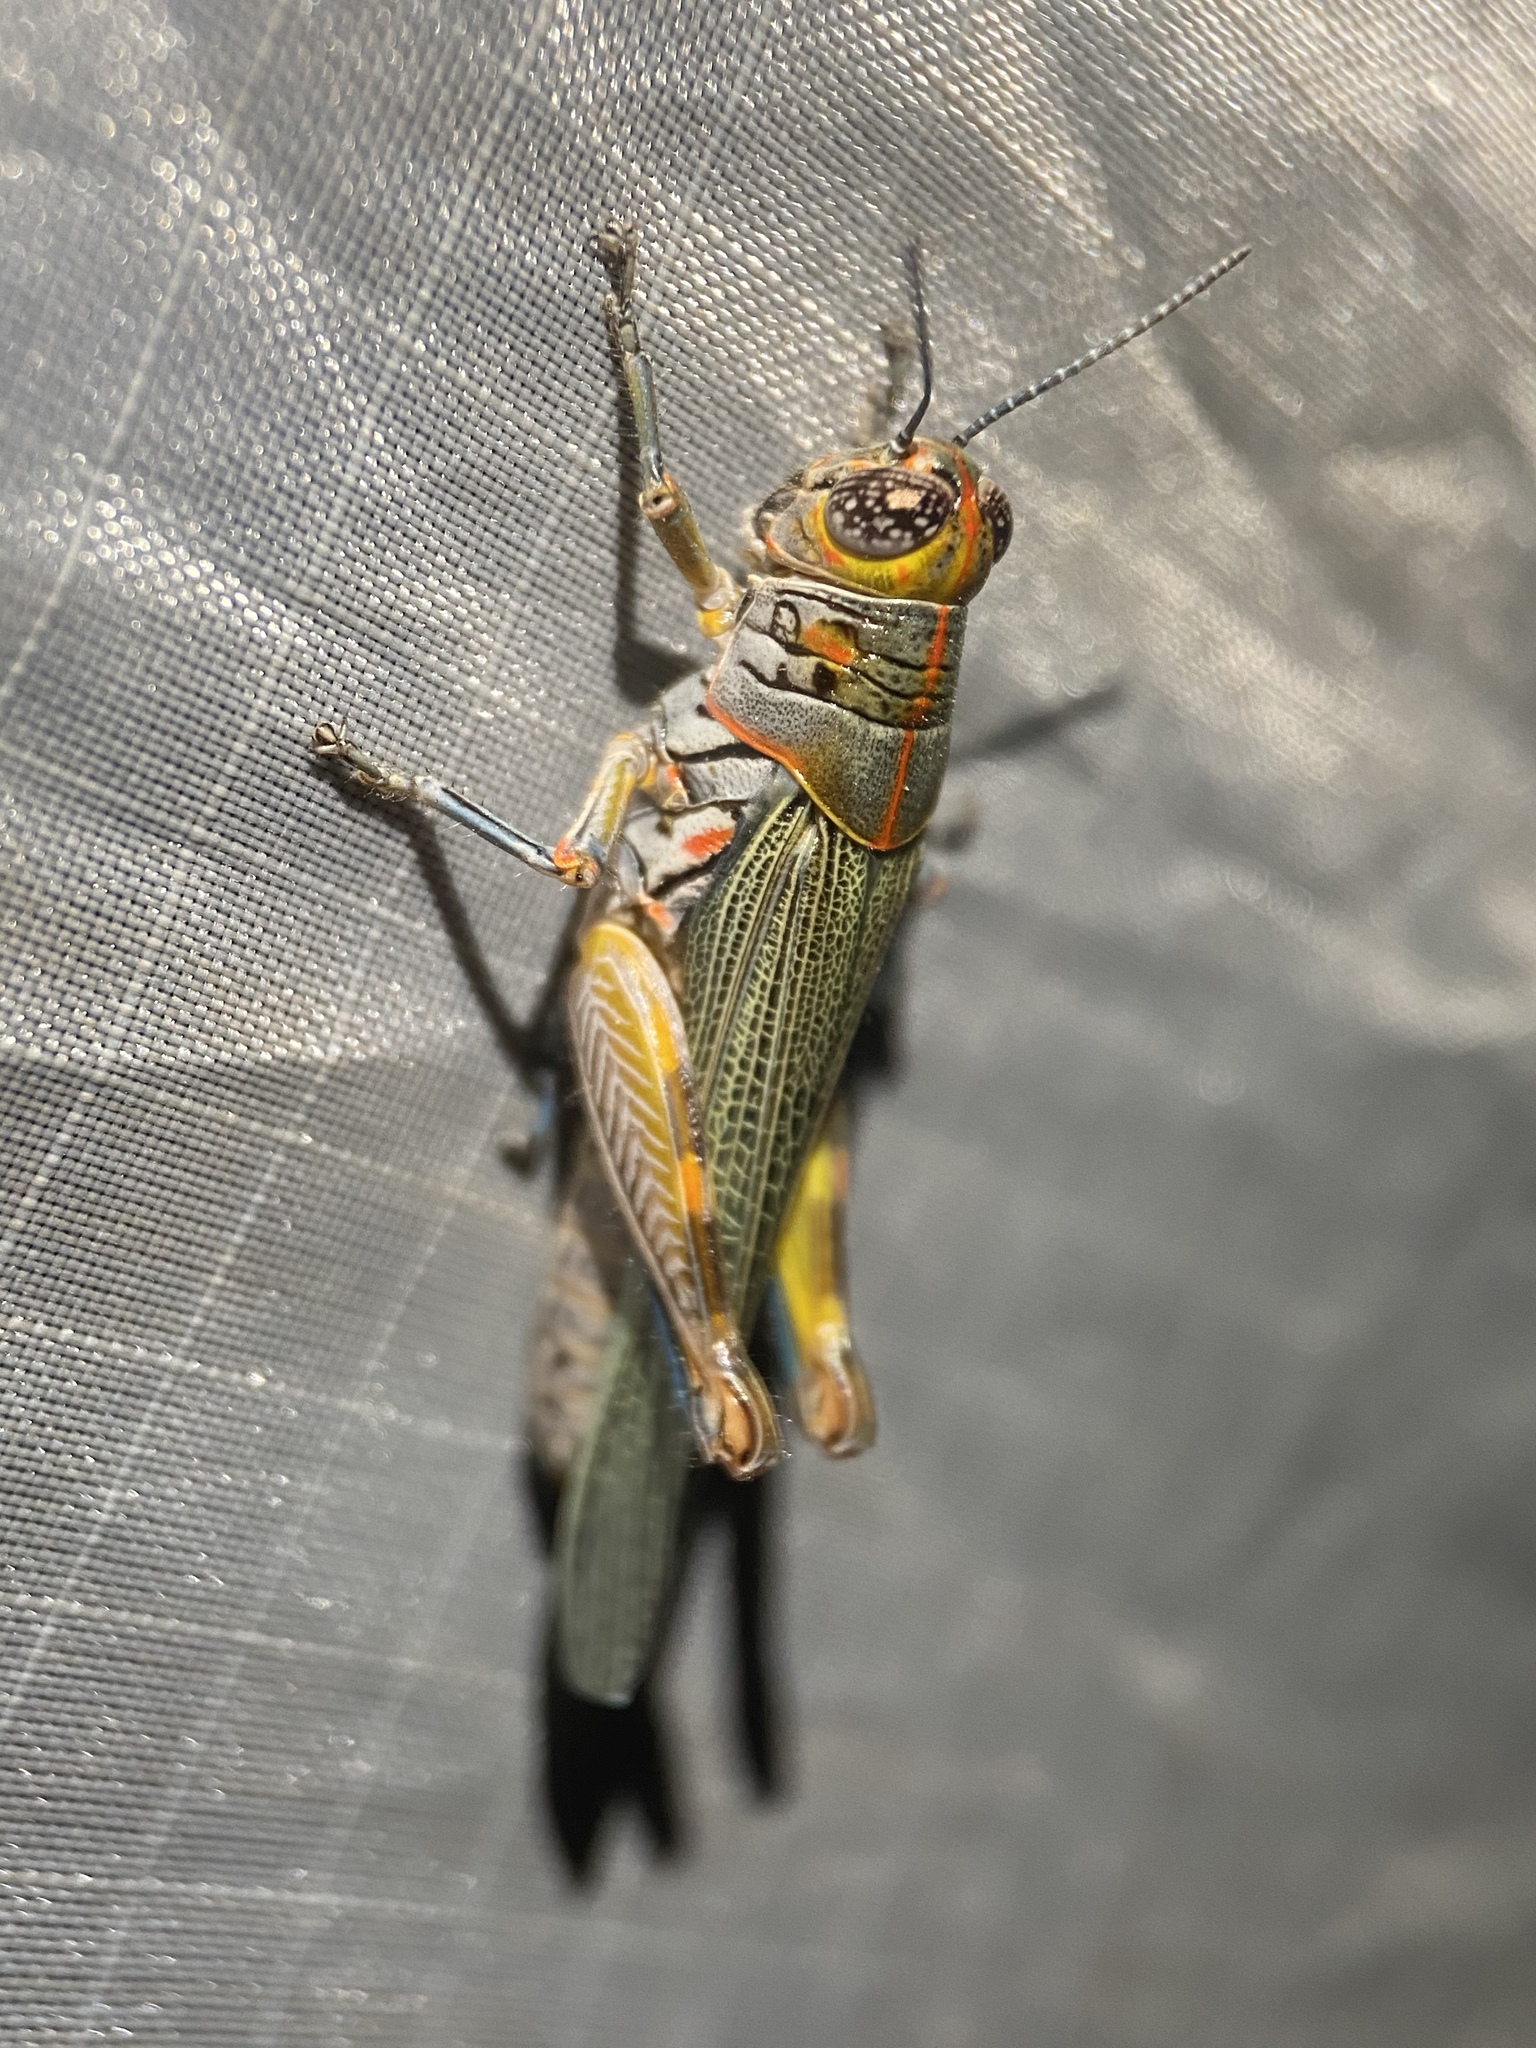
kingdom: Animalia
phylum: Arthropoda
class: Insecta
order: Orthoptera
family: Acrididae
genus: Poecilotettix
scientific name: Poecilotettix sanguineus
